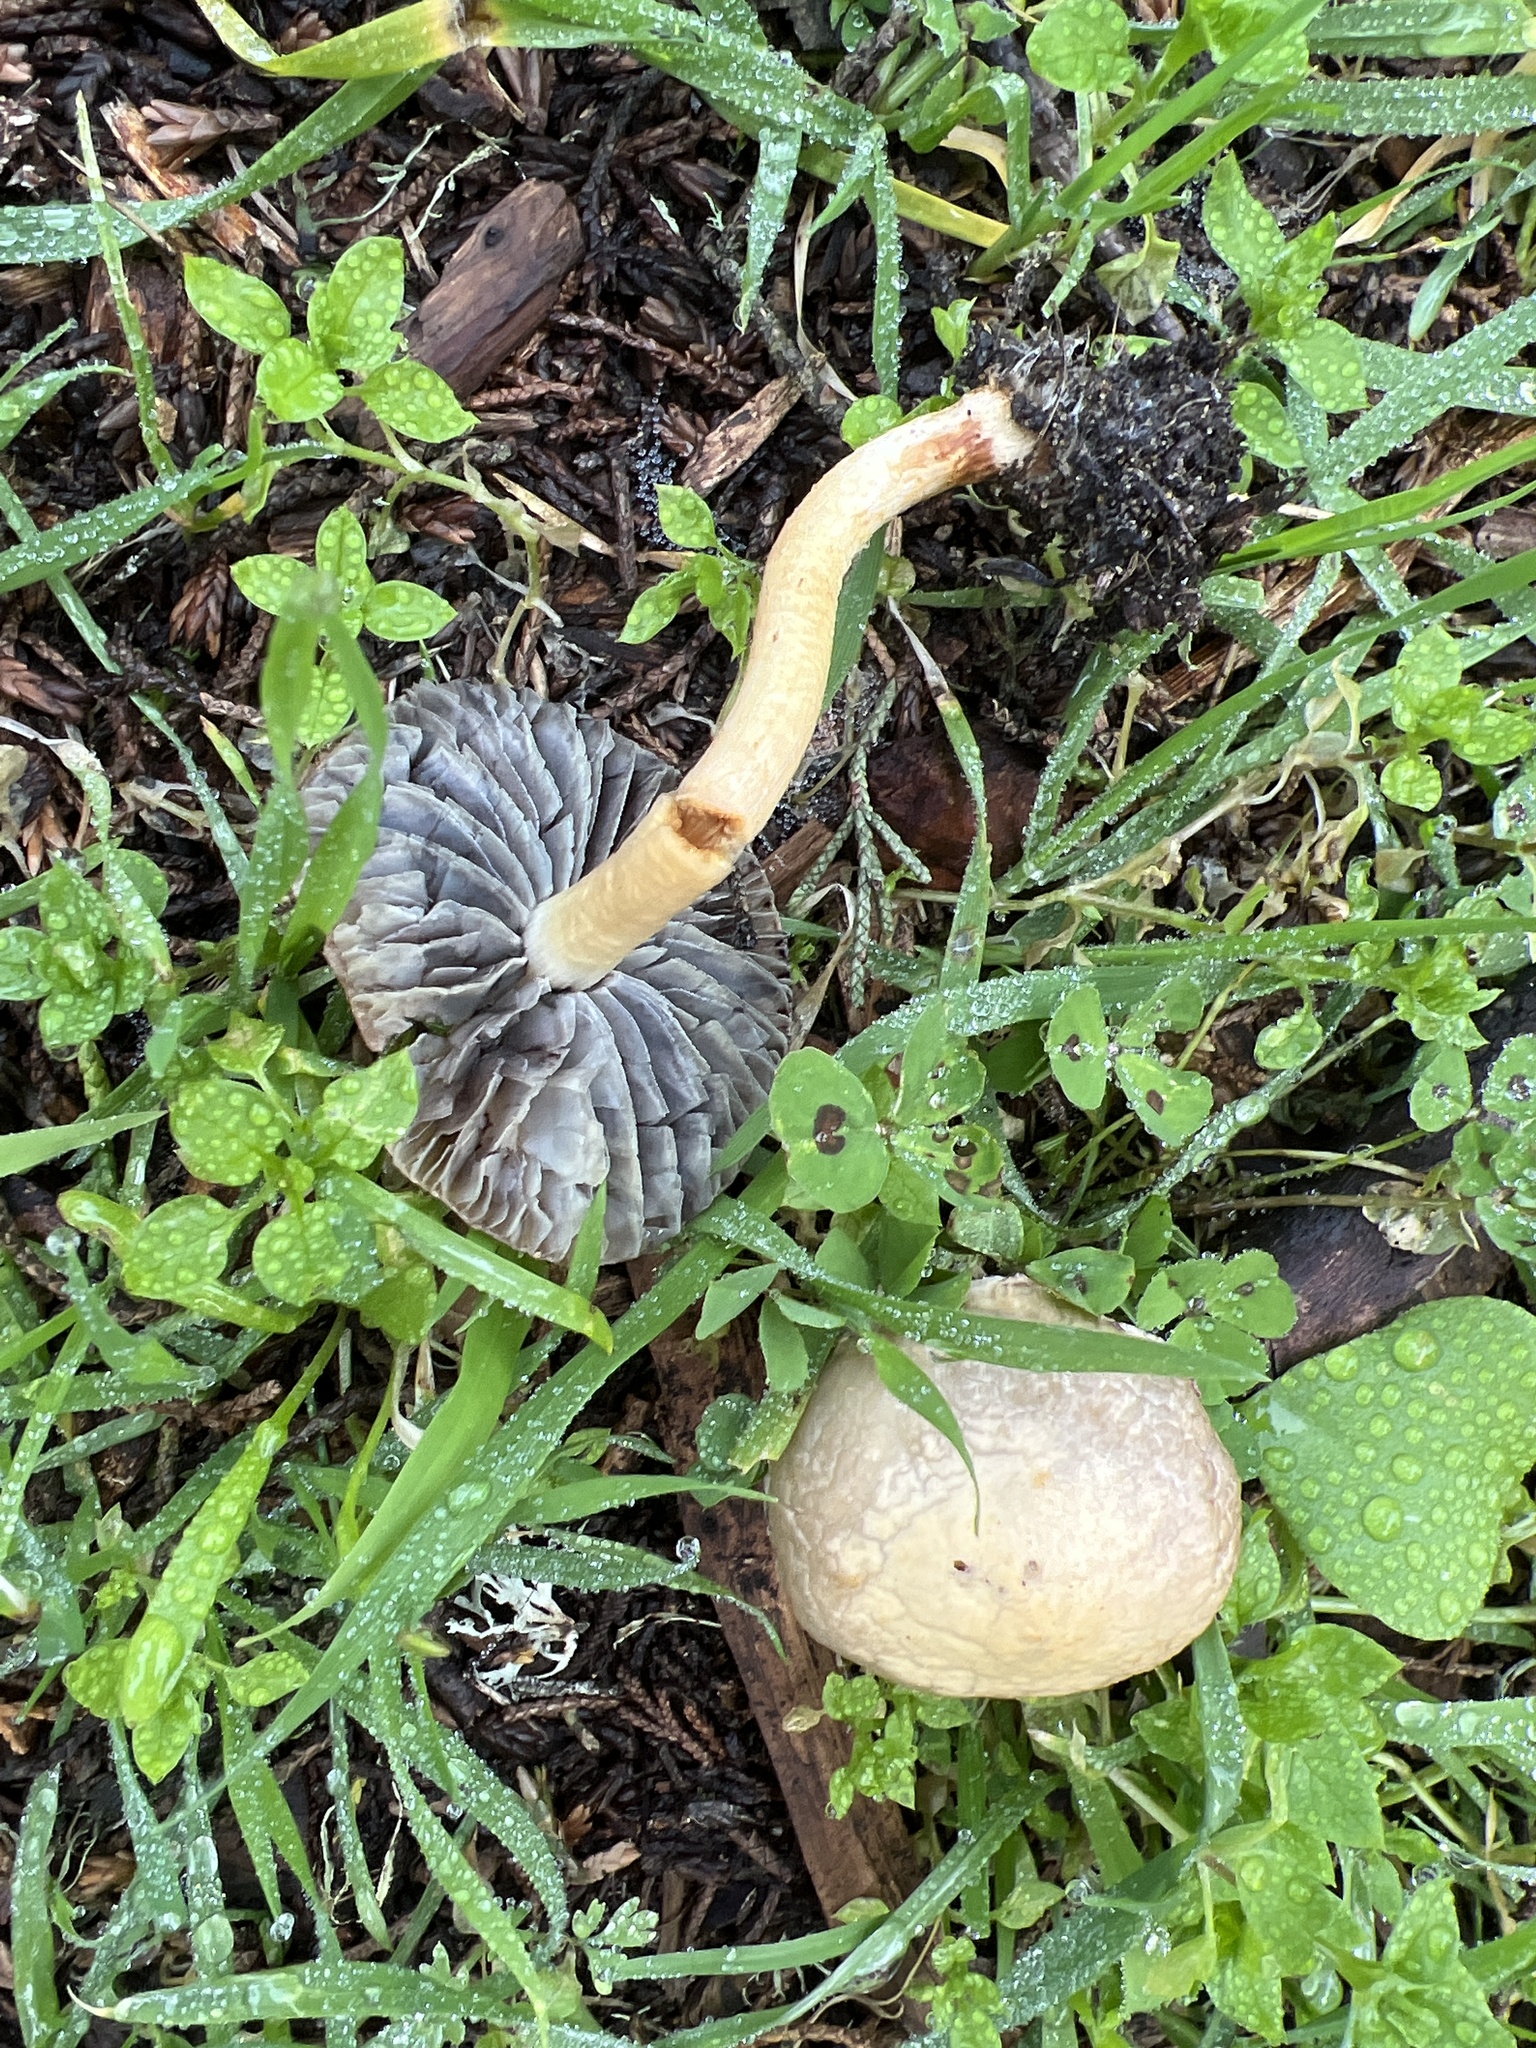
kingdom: Fungi
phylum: Basidiomycota
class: Agaricomycetes
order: Agaricales
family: Strophariaceae
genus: Leratiomyces
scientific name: Leratiomyces percevalii
